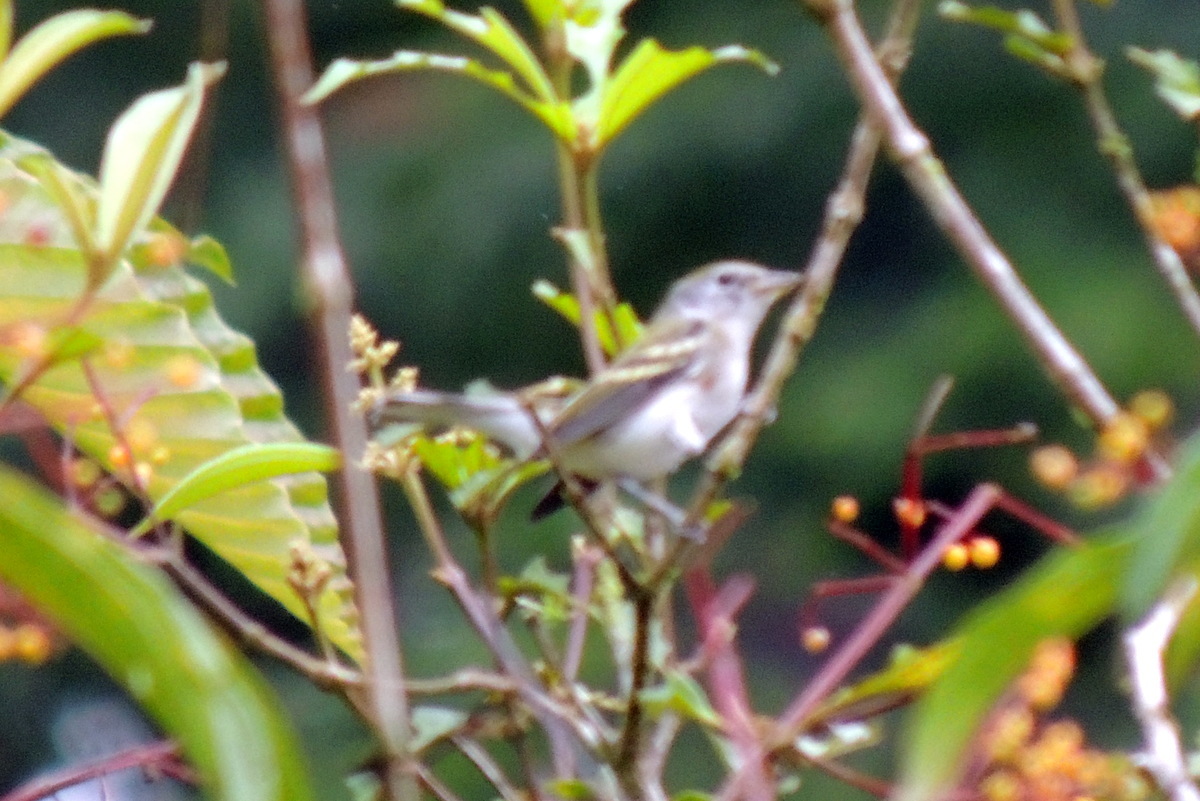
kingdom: Animalia
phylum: Chordata
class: Aves
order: Passeriformes
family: Parulidae
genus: Setophaga
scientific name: Setophaga pensylvanica
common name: Chestnut-sided warbler
